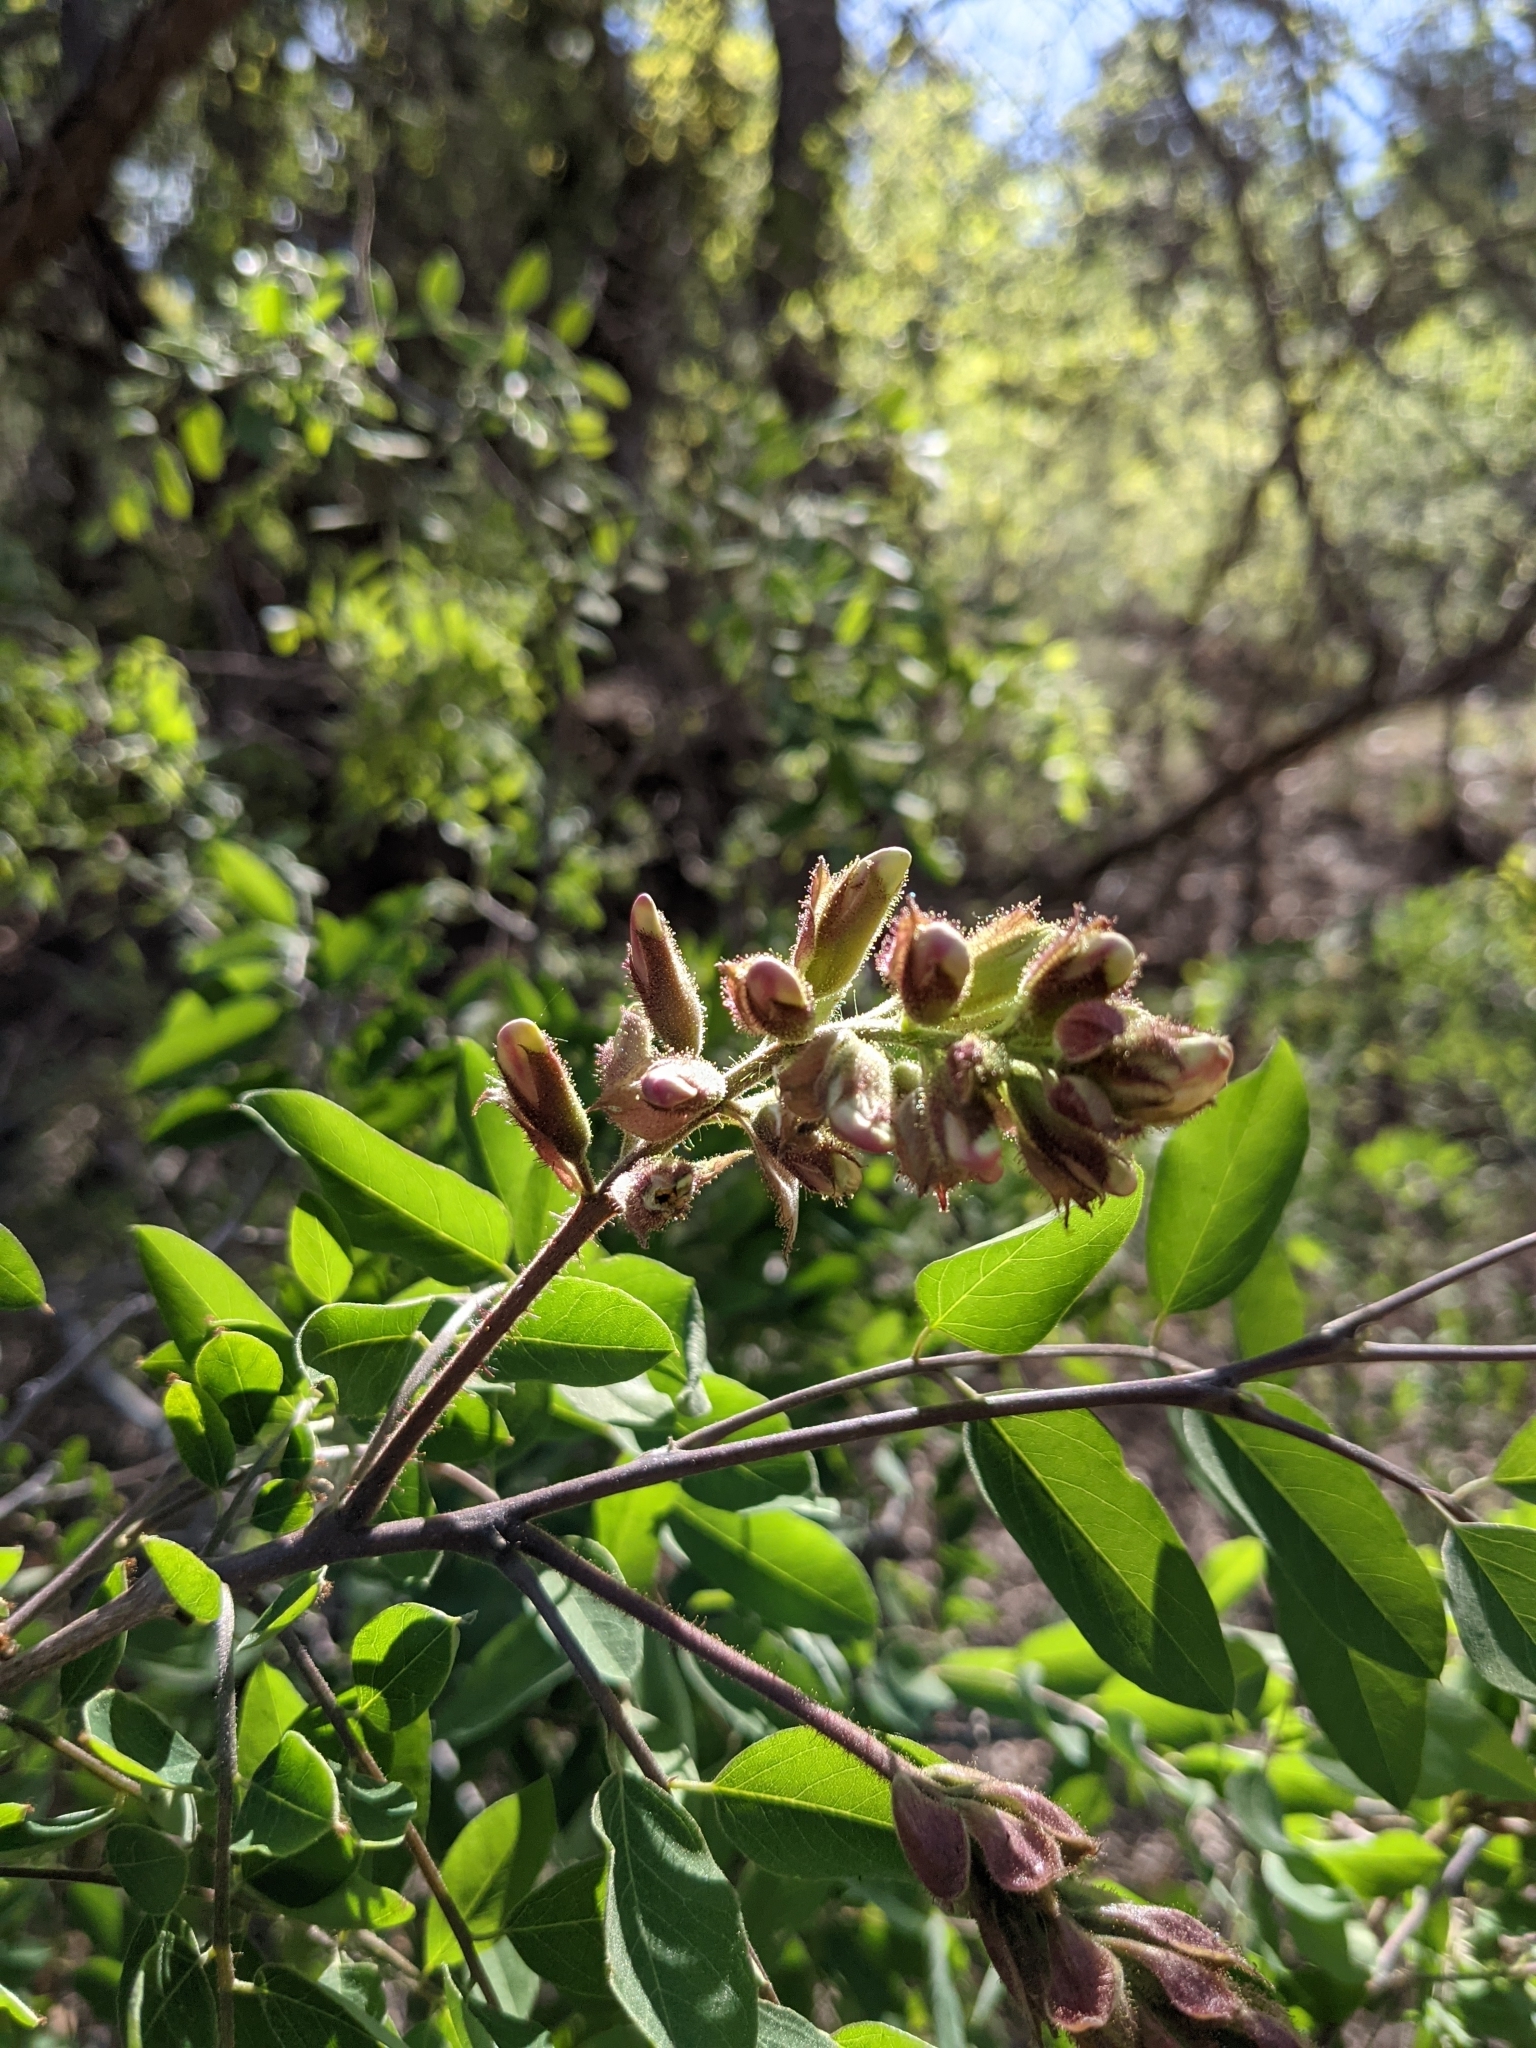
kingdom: Plantae
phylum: Tracheophyta
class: Magnoliopsida
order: Fabales
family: Fabaceae
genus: Robinia
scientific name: Robinia neomexicana
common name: New mexico locust
